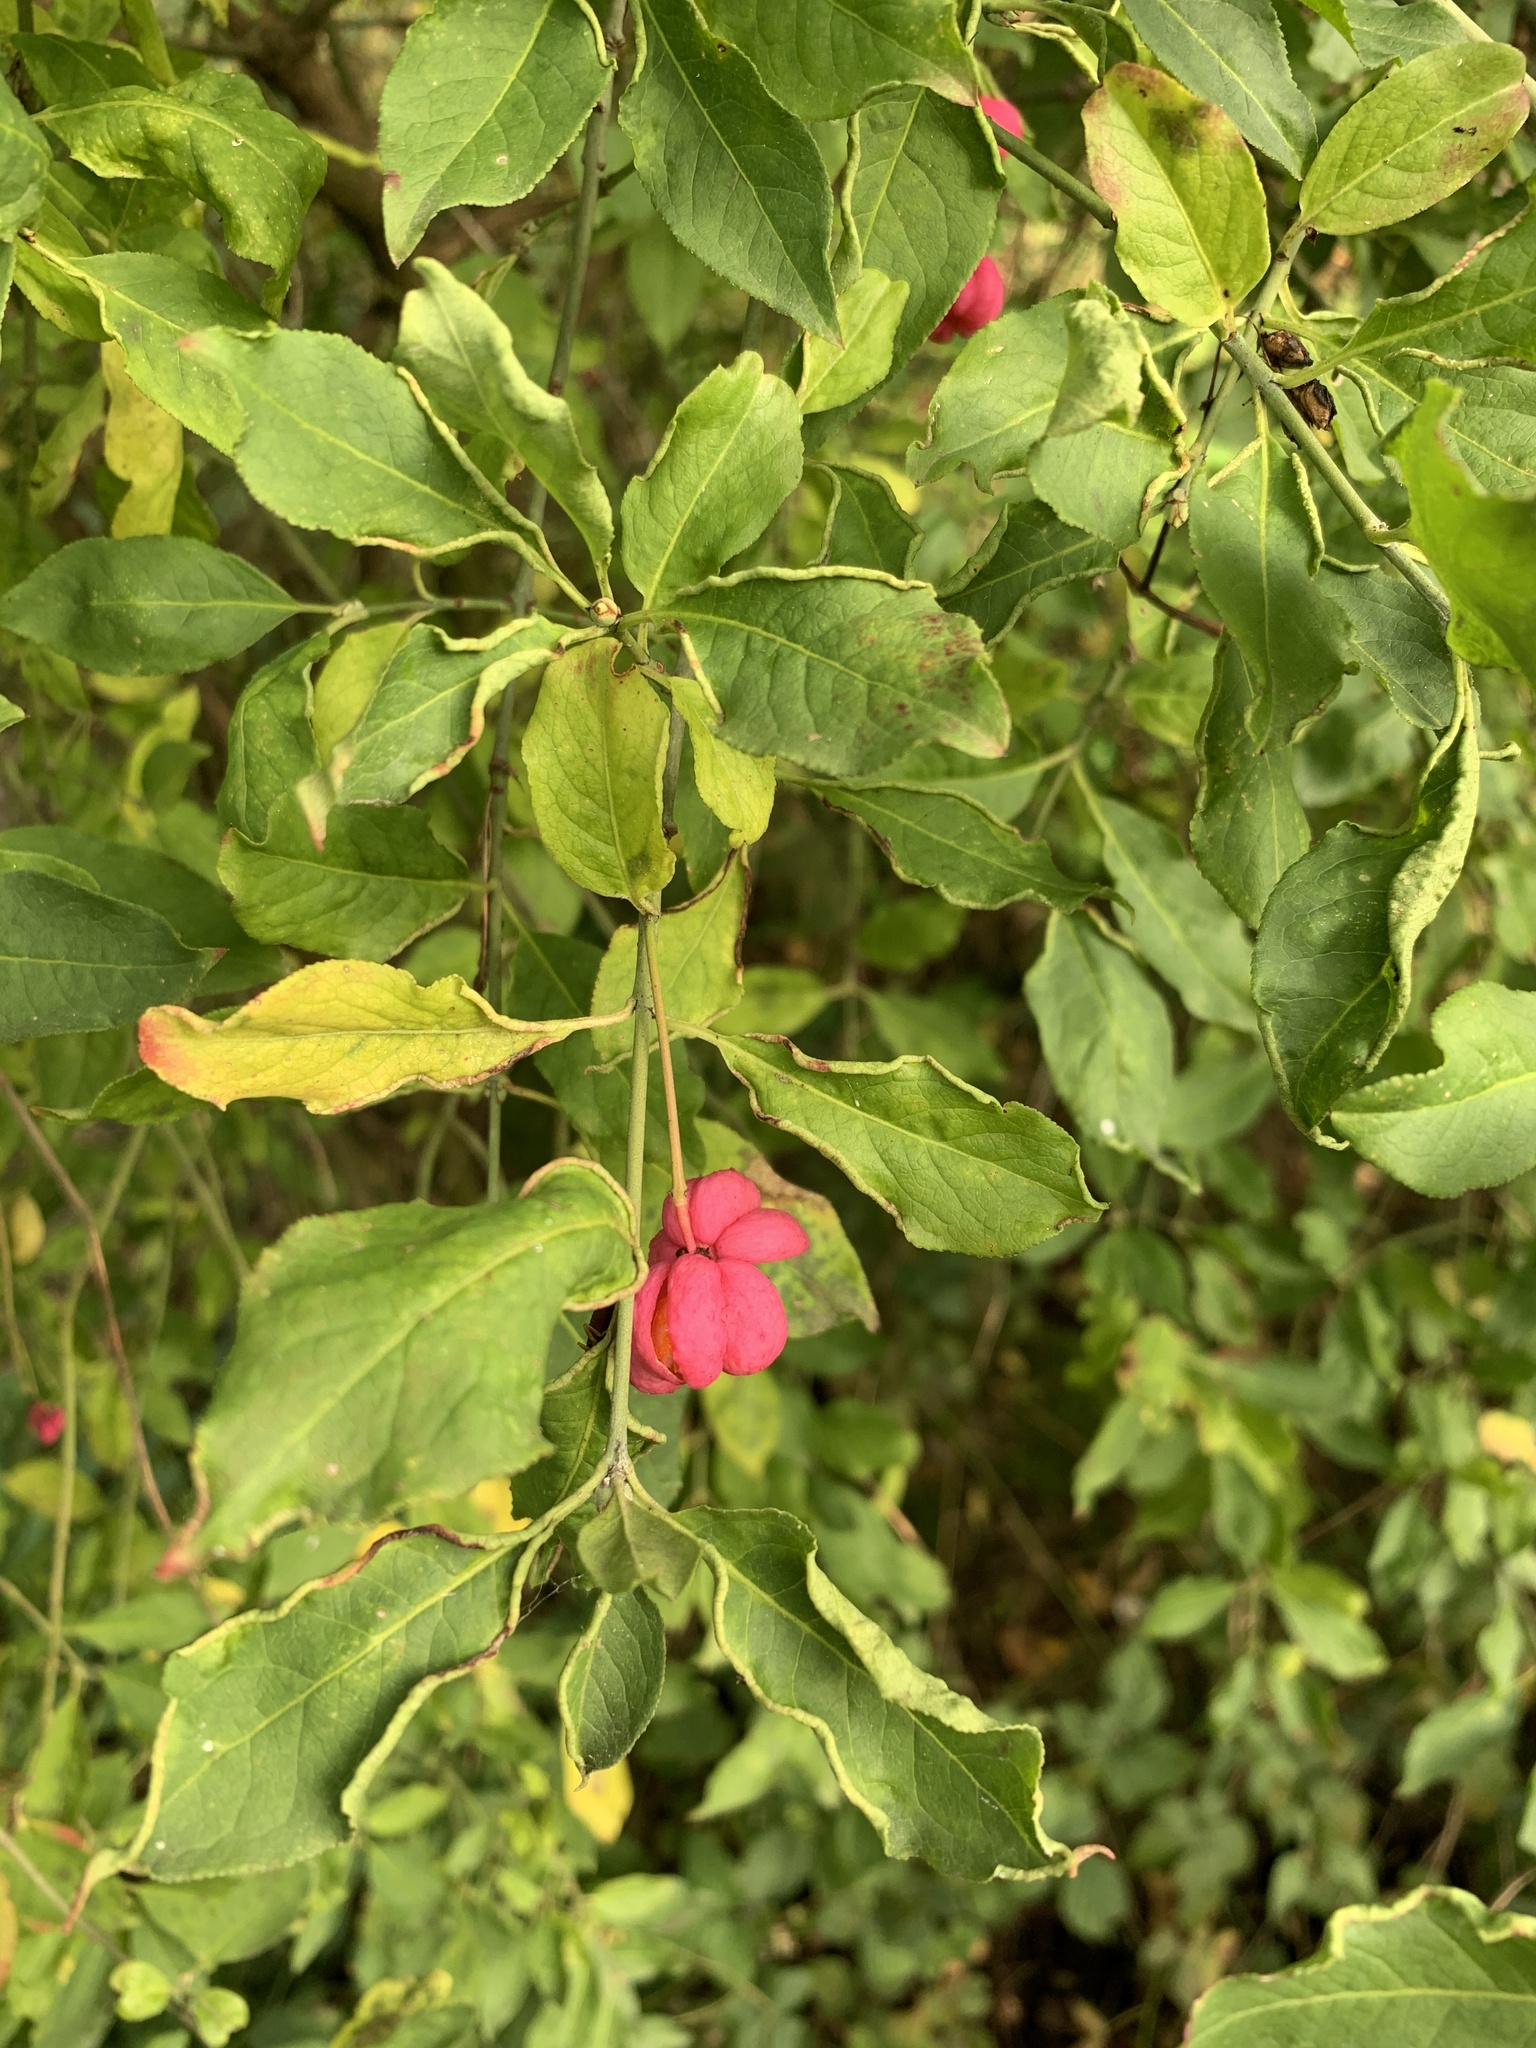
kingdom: Plantae
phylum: Tracheophyta
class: Magnoliopsida
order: Celastrales
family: Celastraceae
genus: Euonymus
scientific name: Euonymus europaeus
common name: Spindle
